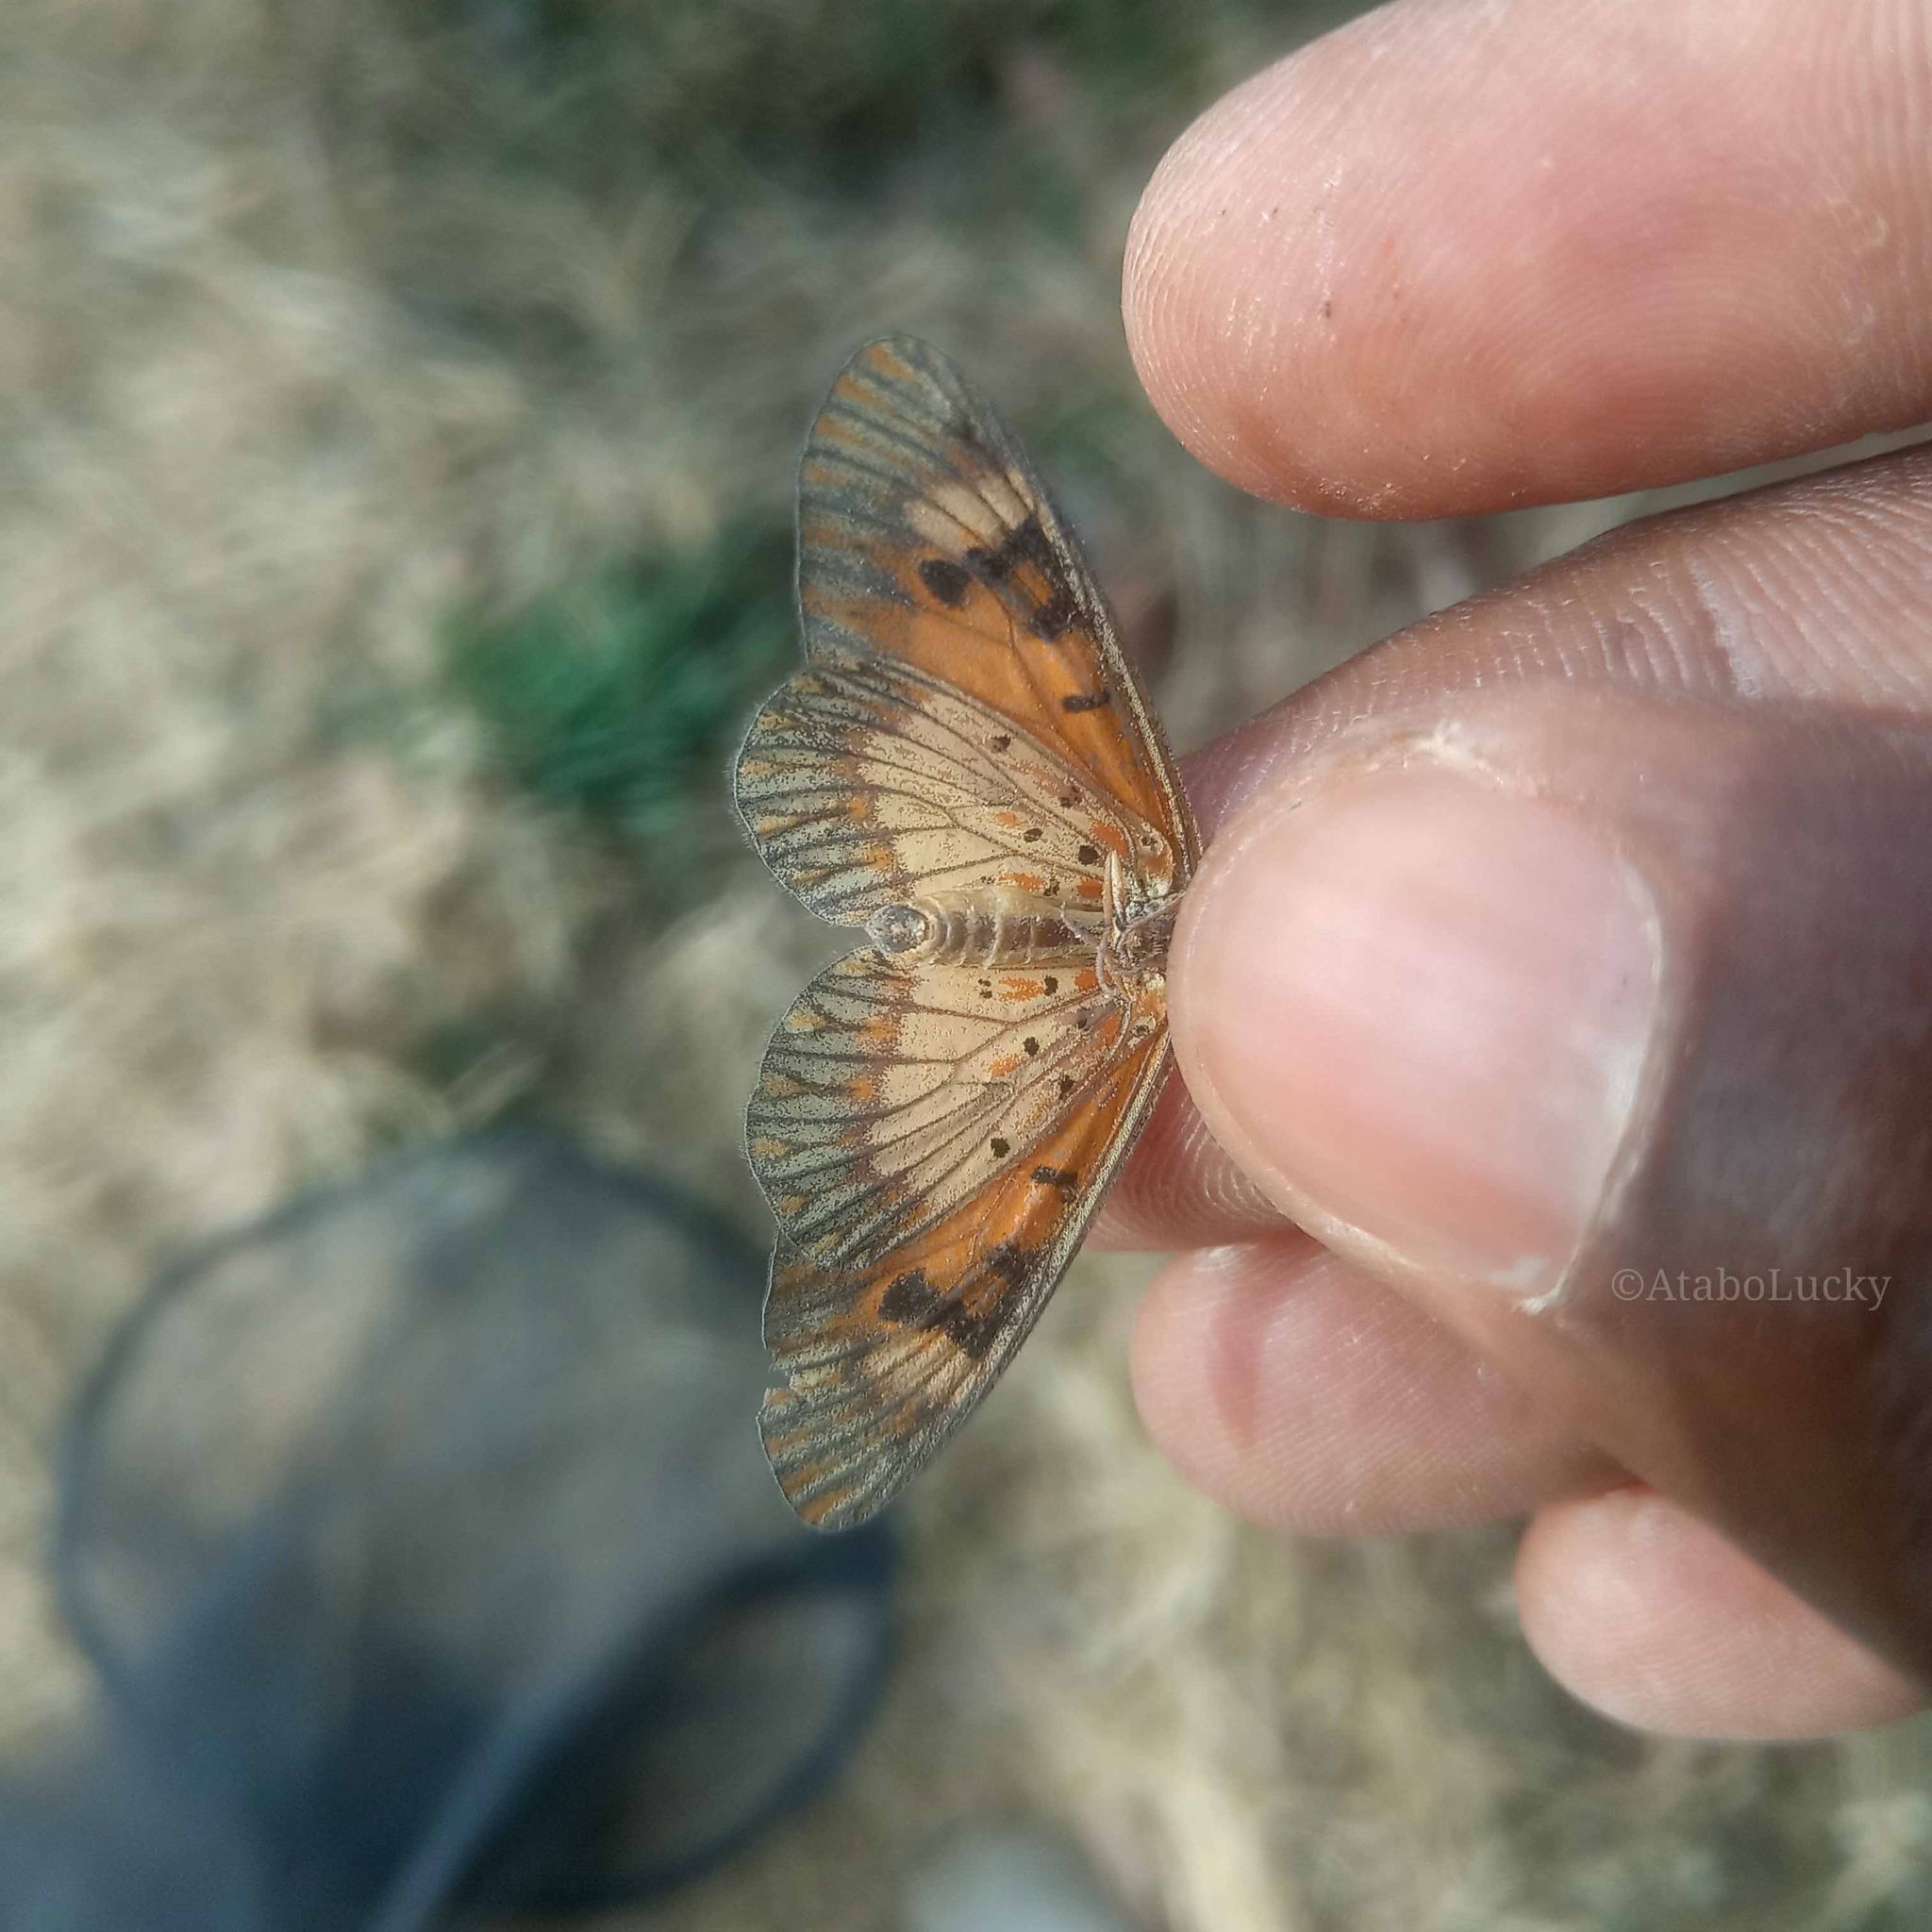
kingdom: Animalia
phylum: Arthropoda
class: Insecta
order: Lepidoptera
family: Nymphalidae
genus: Acraea
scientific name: Acraea Telchinia acerata
